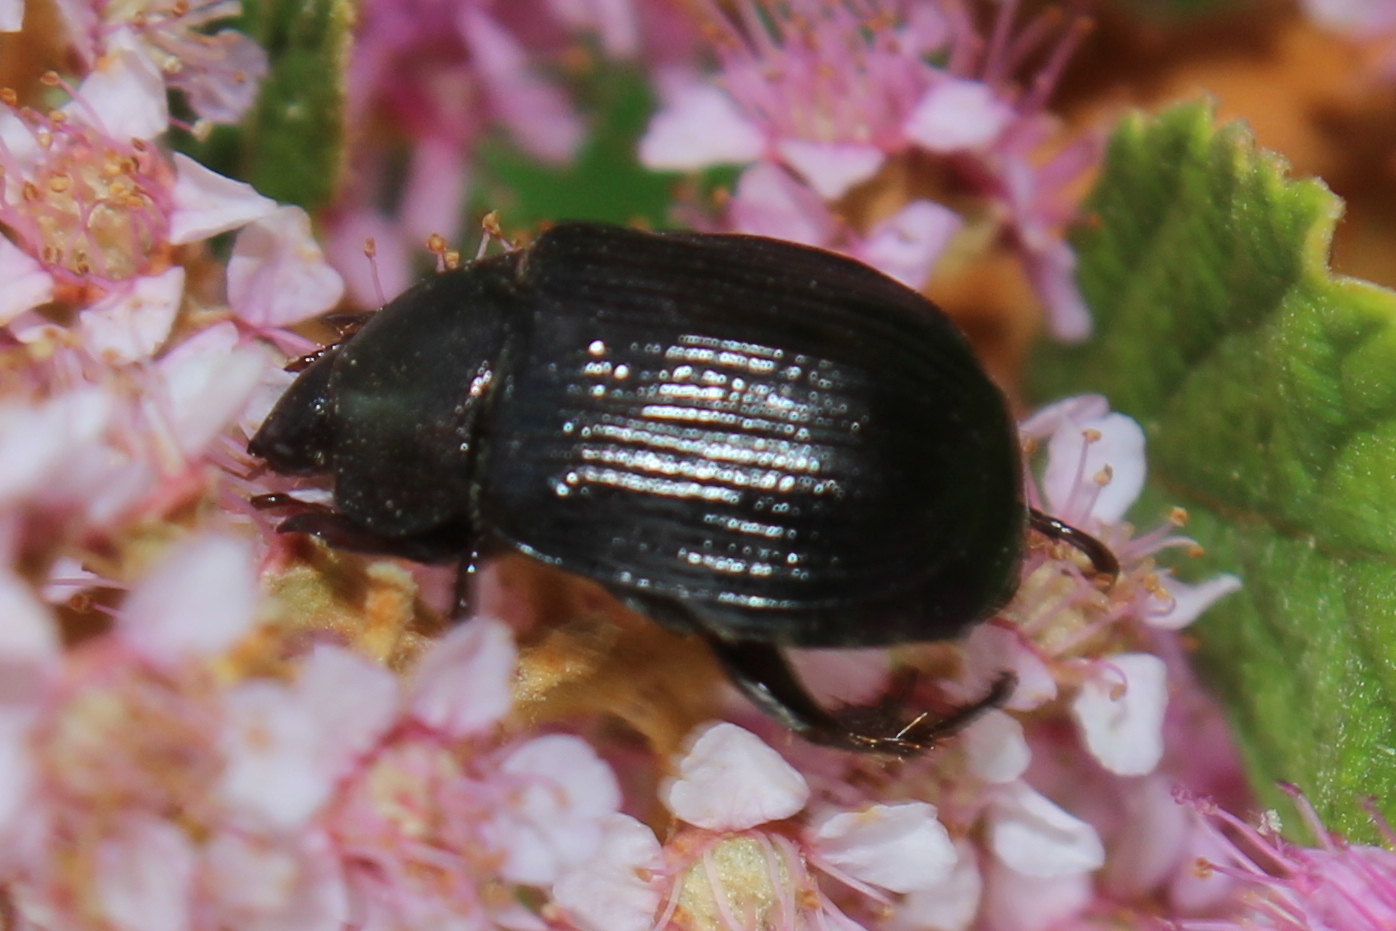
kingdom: Animalia
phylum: Arthropoda
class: Insecta
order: Coleoptera
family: Scarabaeidae
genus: Exomala
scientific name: Exomala orientalis
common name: Oriental beetle
